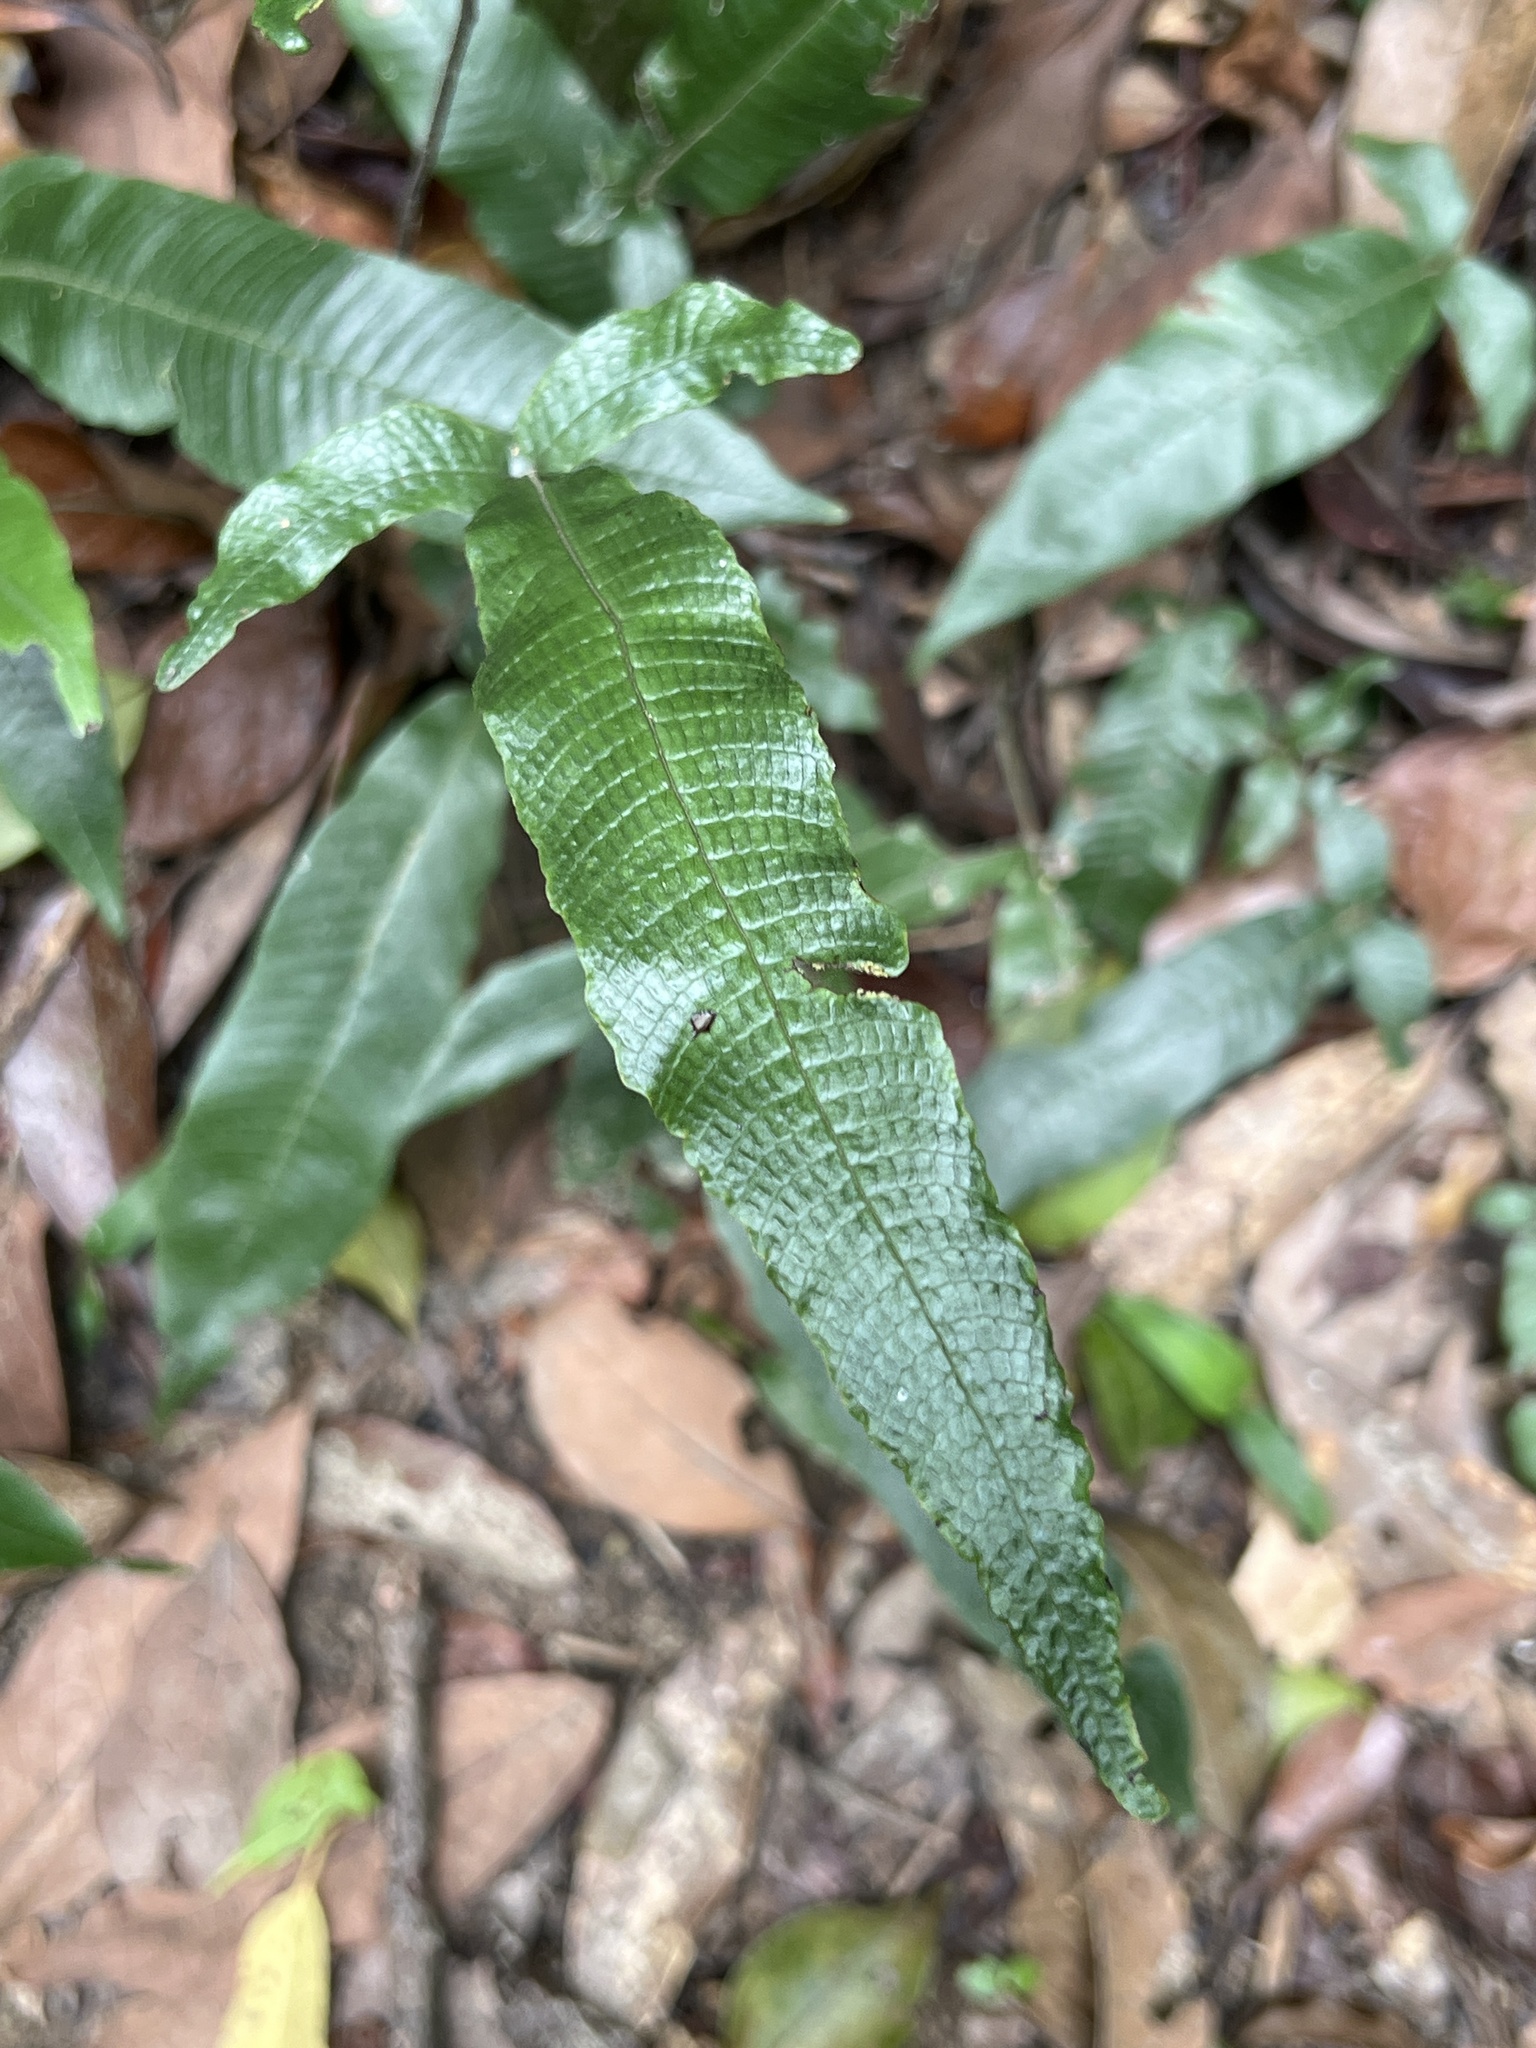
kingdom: Plantae
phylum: Tracheophyta
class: Polypodiopsida
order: Polypodiales
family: Thelypteridaceae
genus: Grypothrix
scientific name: Grypothrix triphylla
